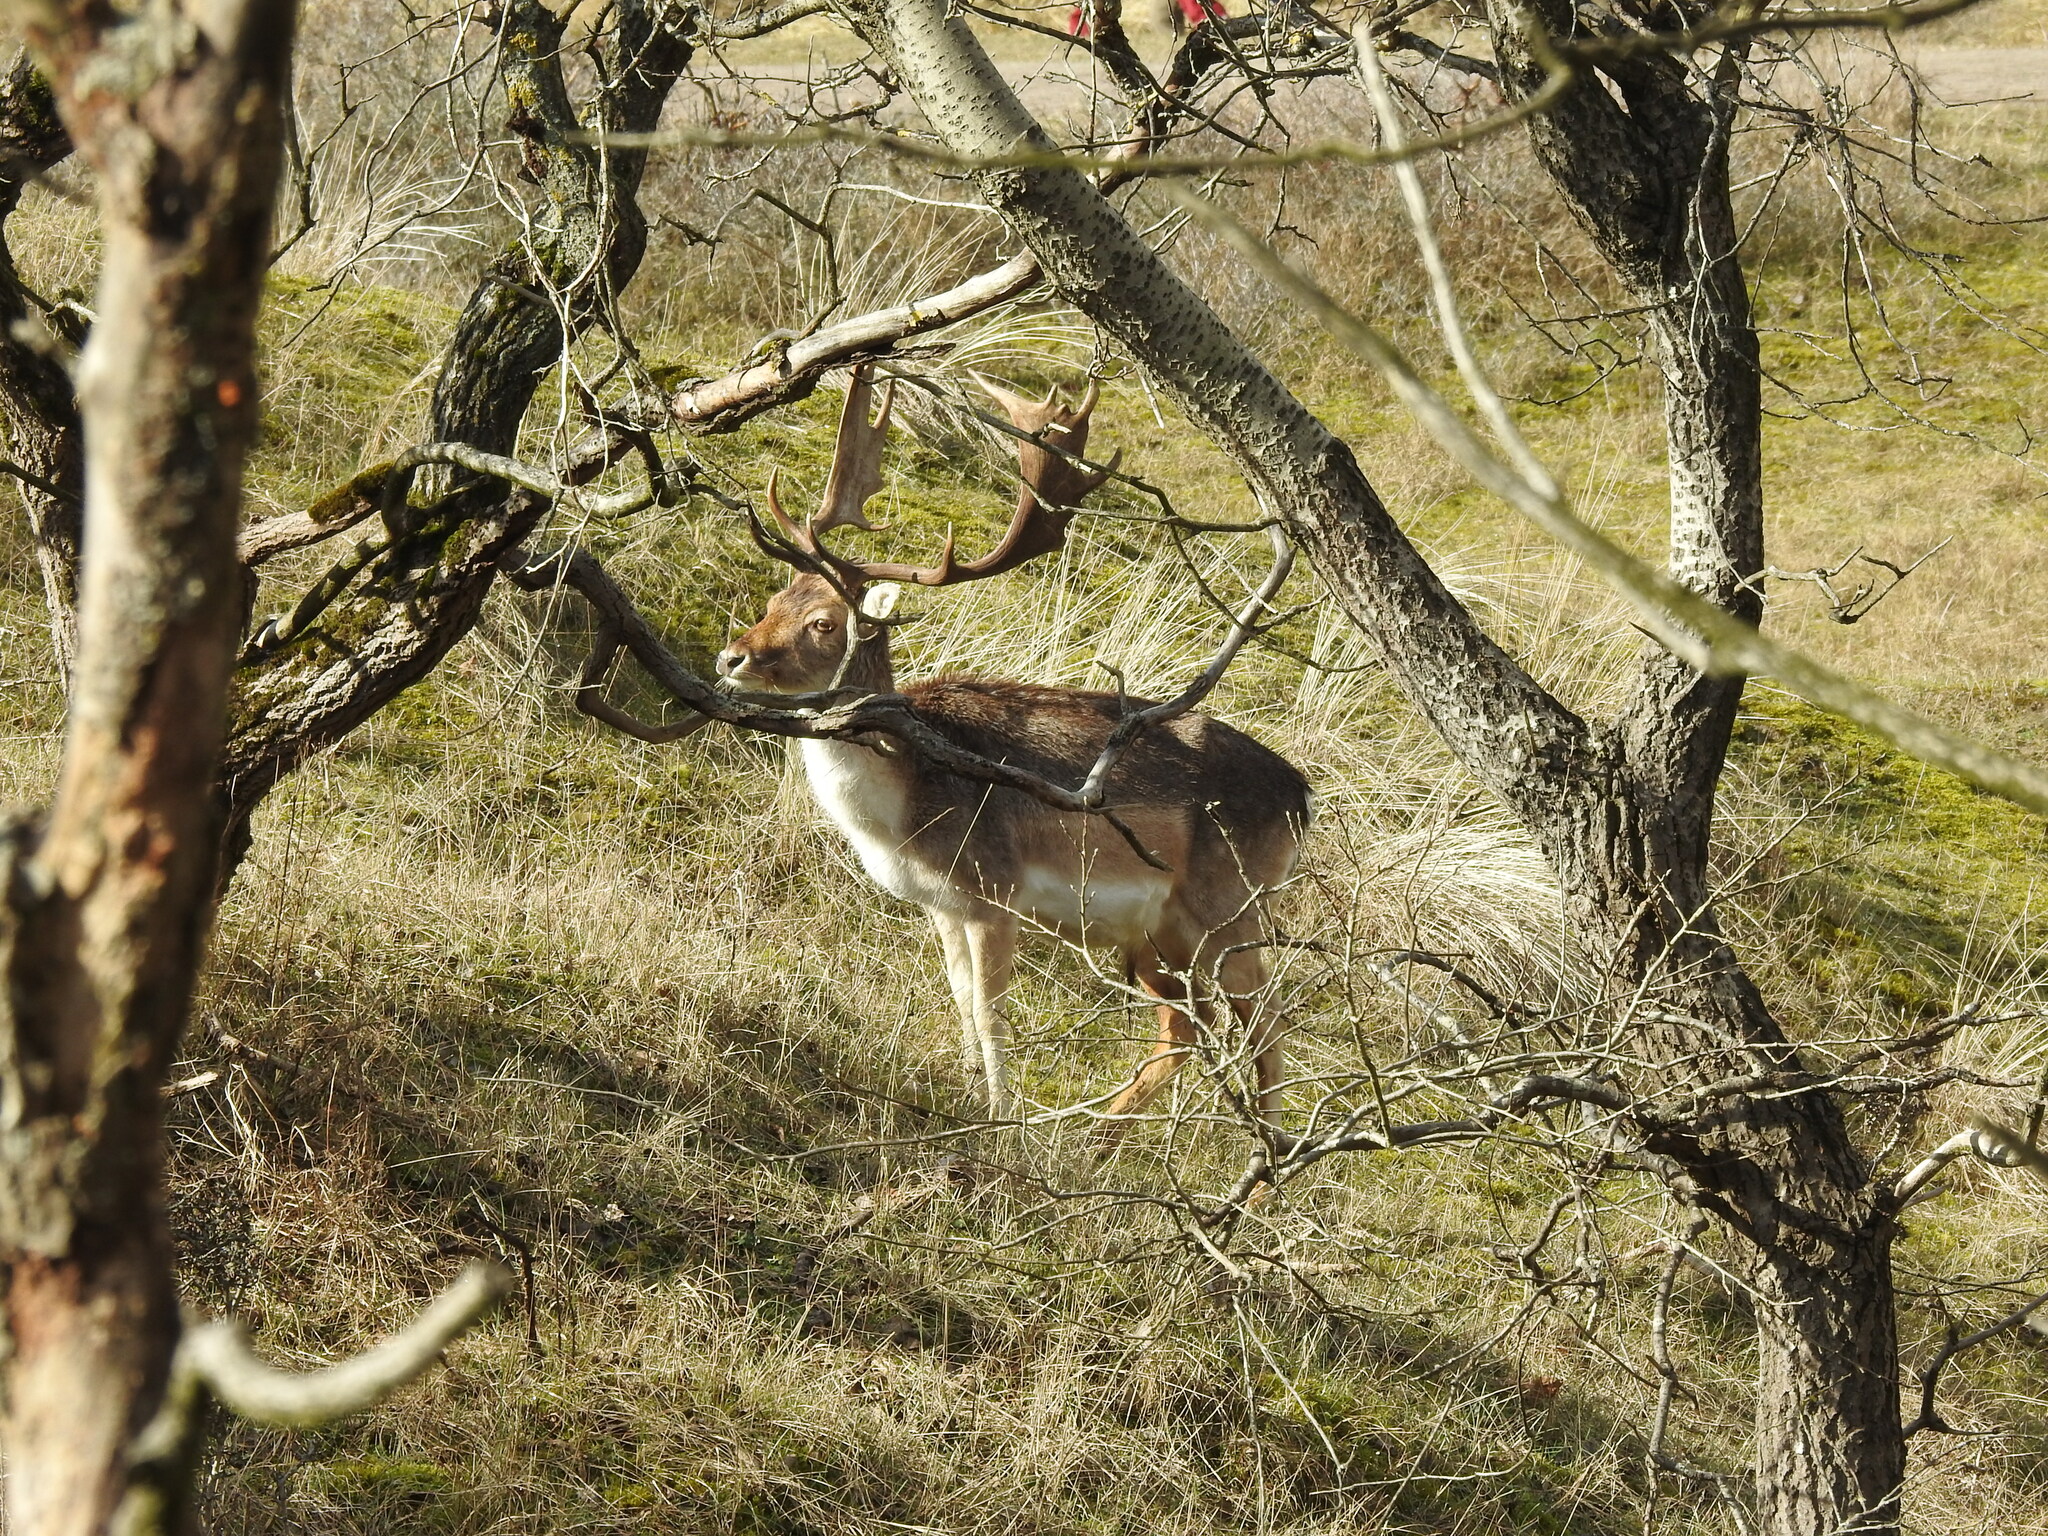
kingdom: Animalia
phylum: Chordata
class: Mammalia
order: Artiodactyla
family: Cervidae
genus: Dama
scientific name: Dama dama
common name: Fallow deer
